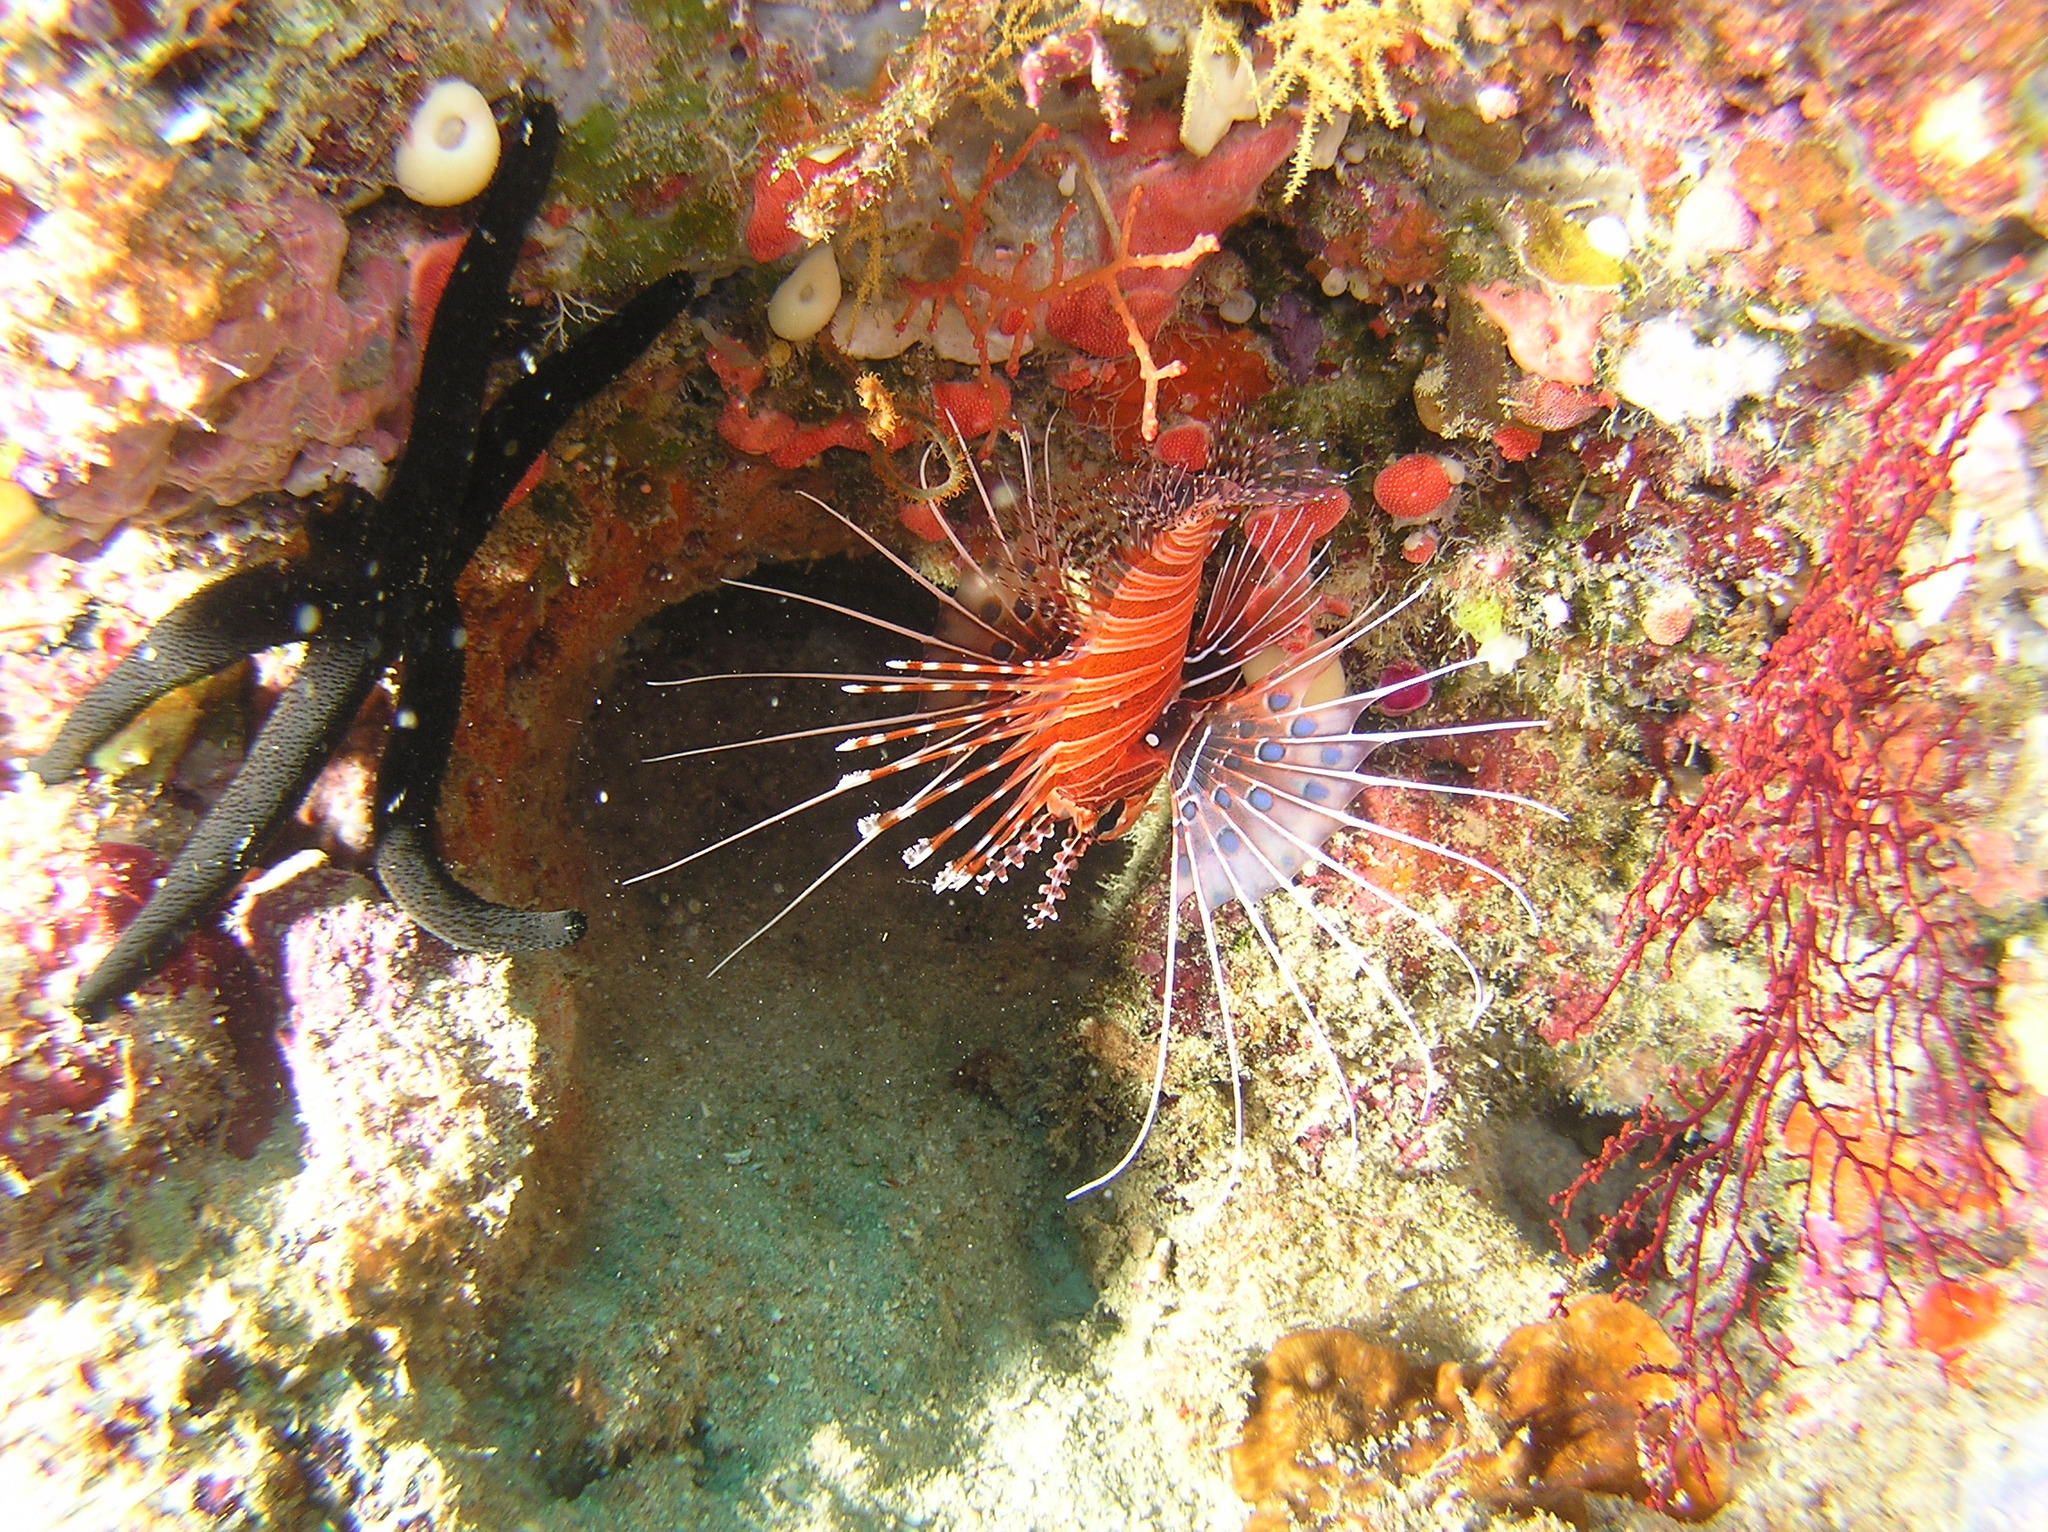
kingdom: Animalia
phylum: Chordata
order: Scorpaeniformes
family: Scorpaenidae
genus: Pterois
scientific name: Pterois antennata
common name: Spotfin lionfish
